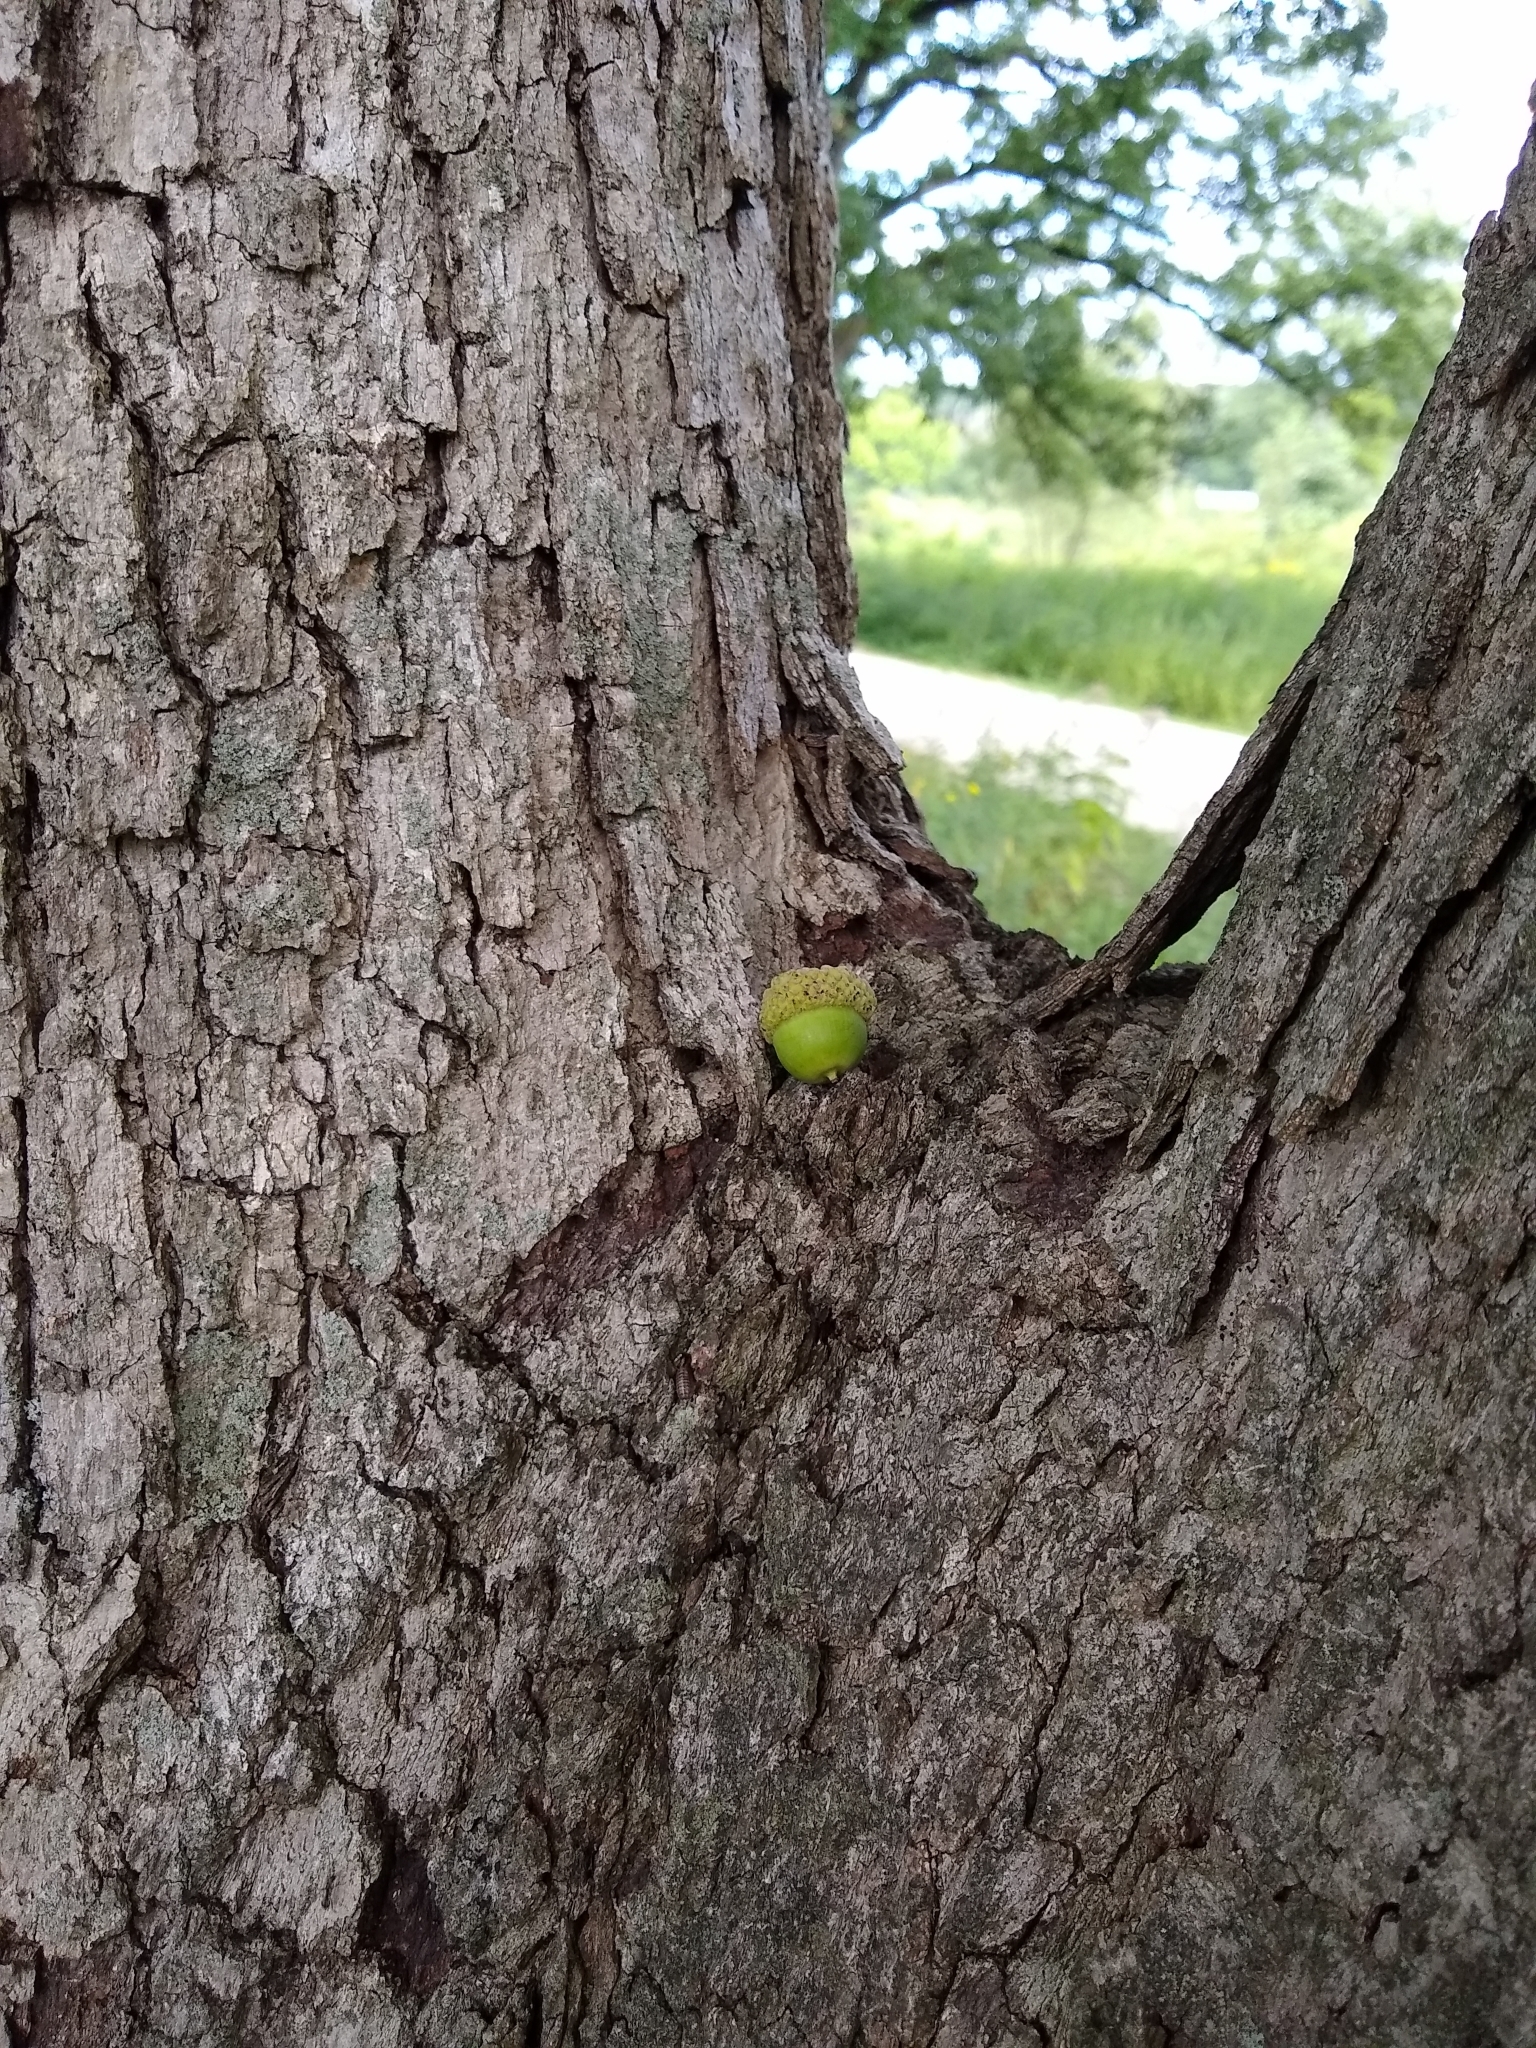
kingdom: Plantae
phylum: Tracheophyta
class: Magnoliopsida
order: Fagales
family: Fagaceae
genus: Quercus
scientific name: Quercus alba
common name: White oak
